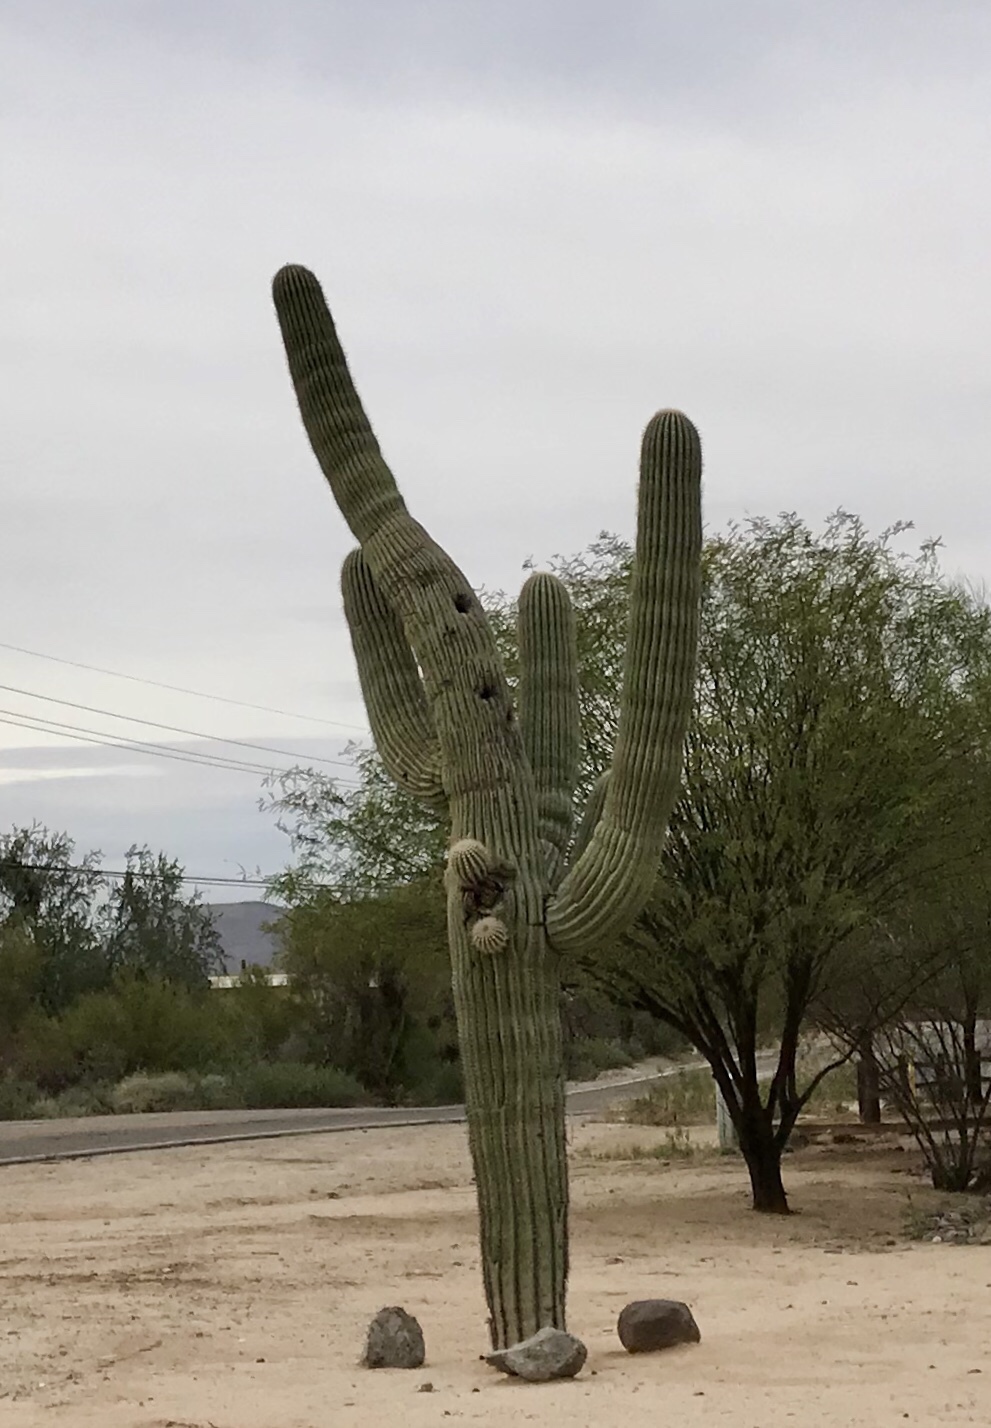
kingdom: Plantae
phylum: Tracheophyta
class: Magnoliopsida
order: Caryophyllales
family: Cactaceae
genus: Carnegiea
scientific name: Carnegiea gigantea
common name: Saguaro
